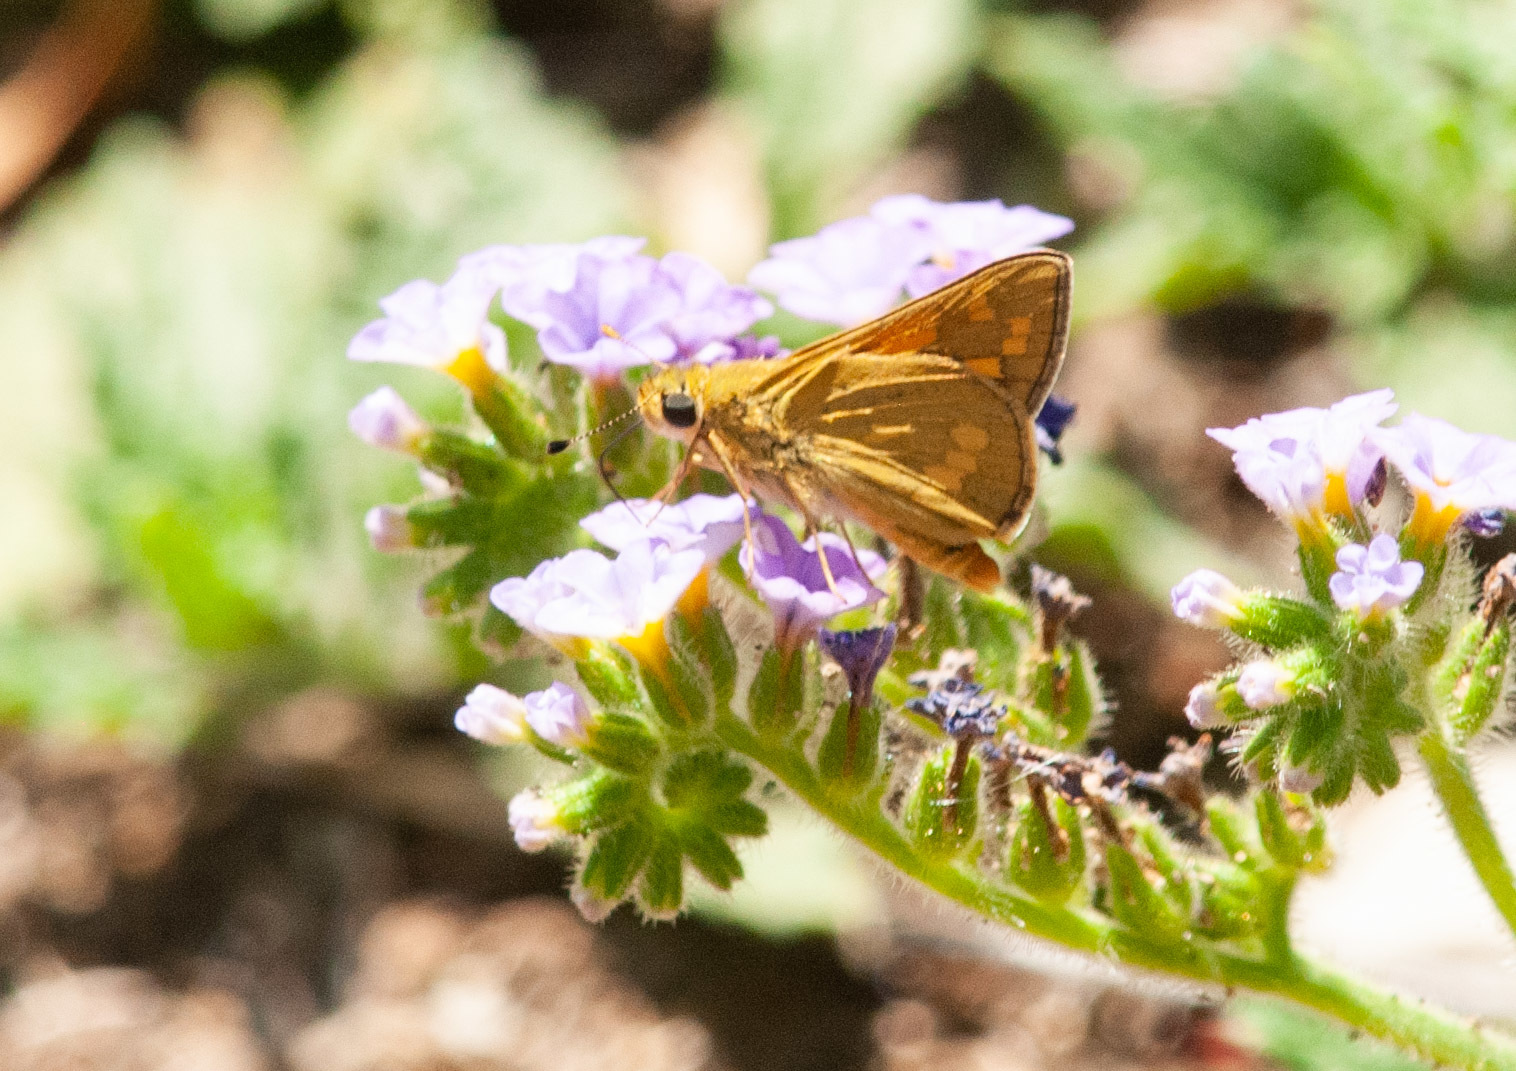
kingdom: Animalia
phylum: Arthropoda
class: Insecta
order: Lepidoptera
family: Hesperiidae
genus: Taractrocera
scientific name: Taractrocera ina
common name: Ina grass-dart
